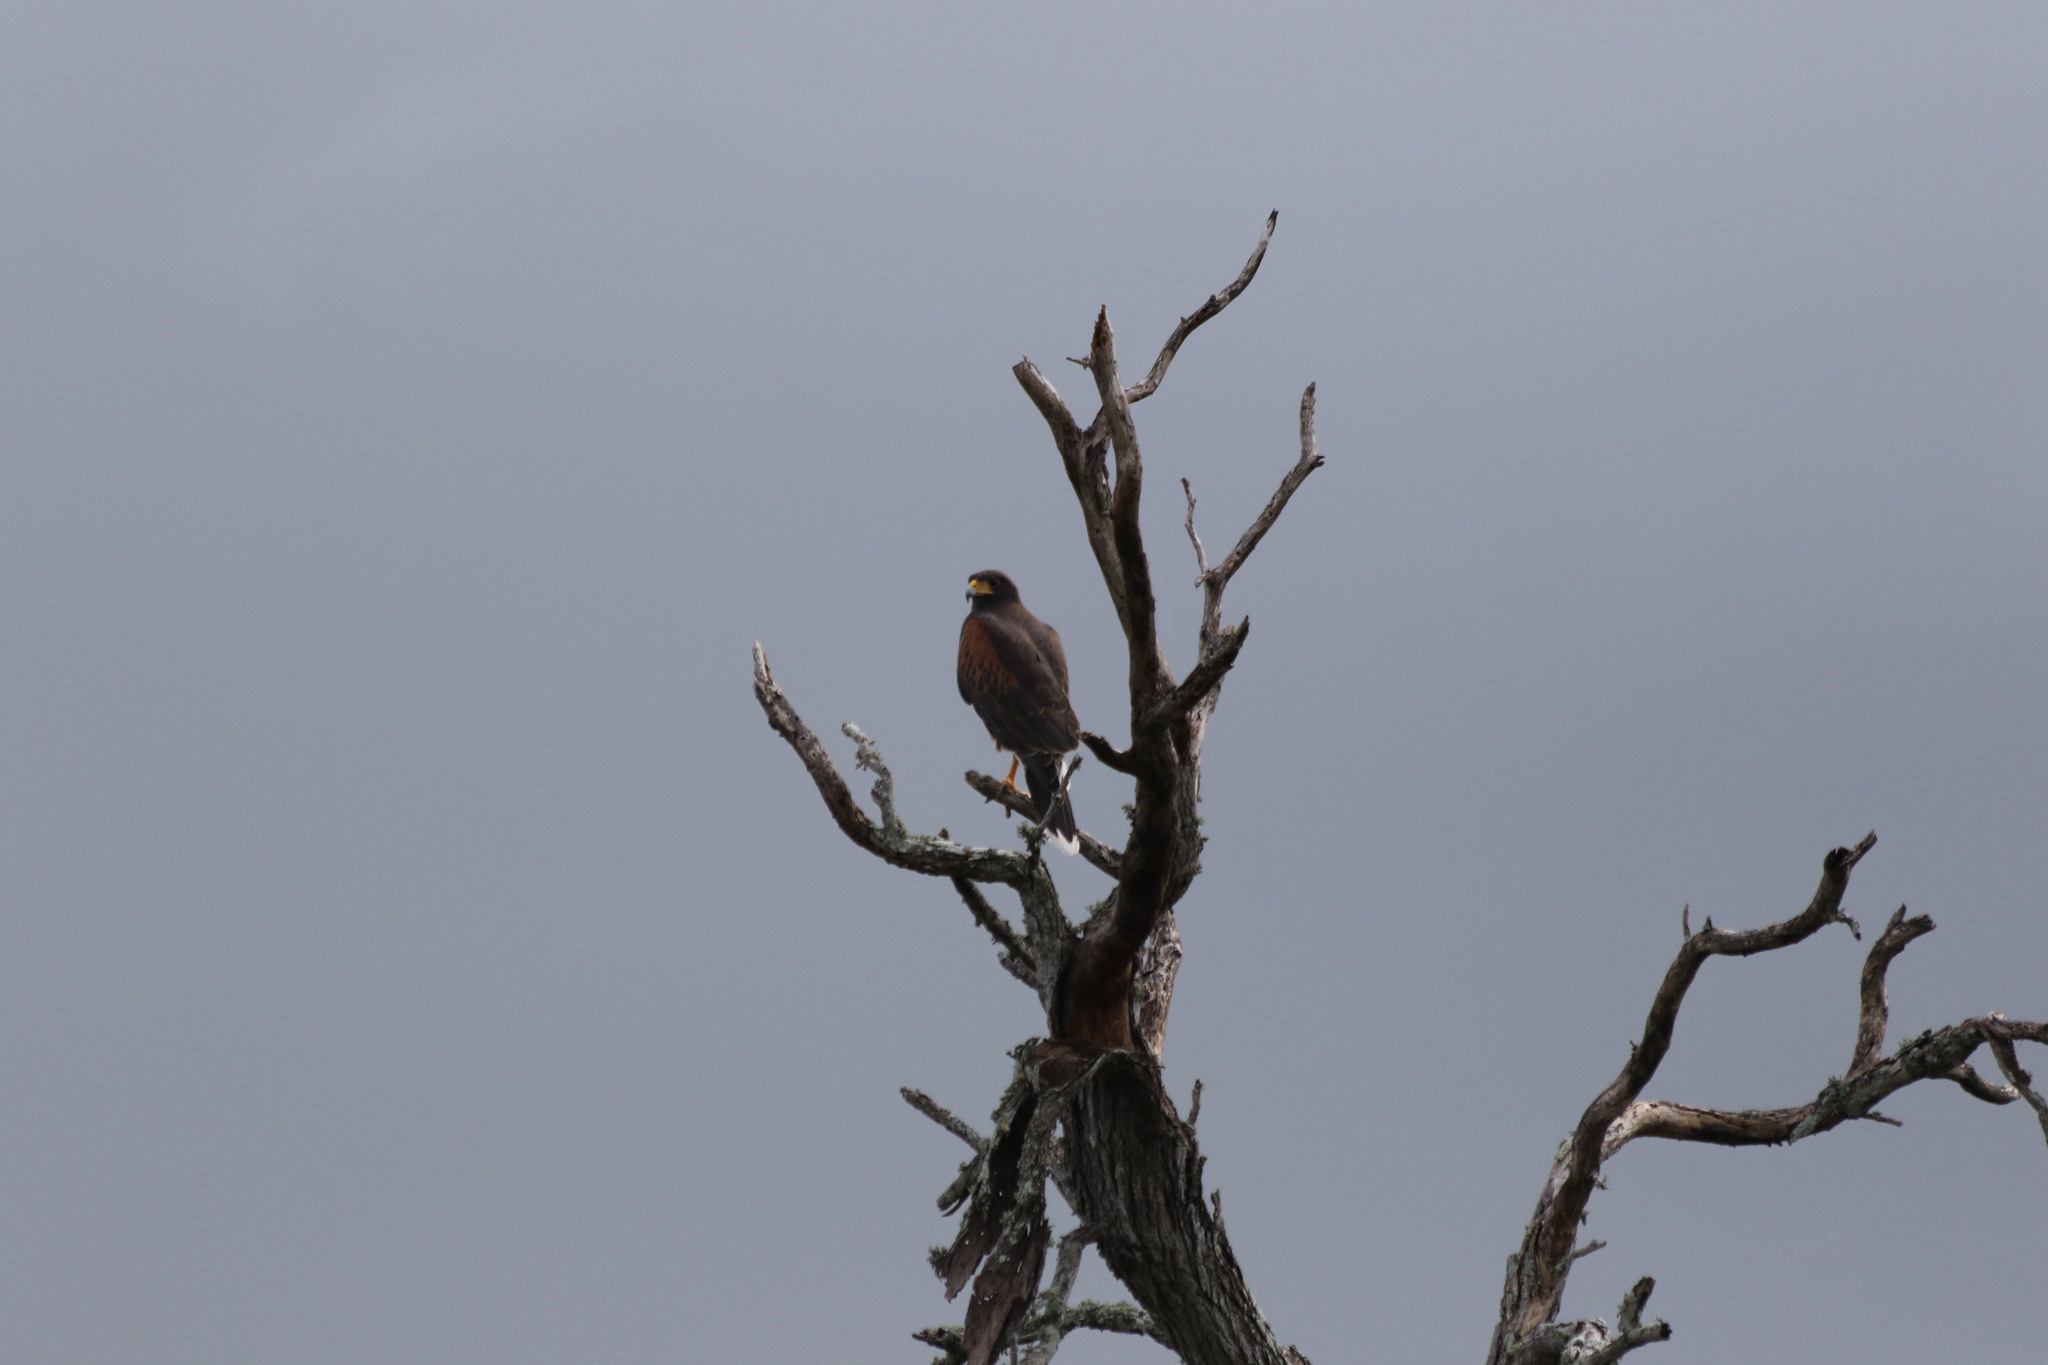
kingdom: Animalia
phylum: Chordata
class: Aves
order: Accipitriformes
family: Accipitridae
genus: Parabuteo
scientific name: Parabuteo unicinctus
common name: Harris's hawk
